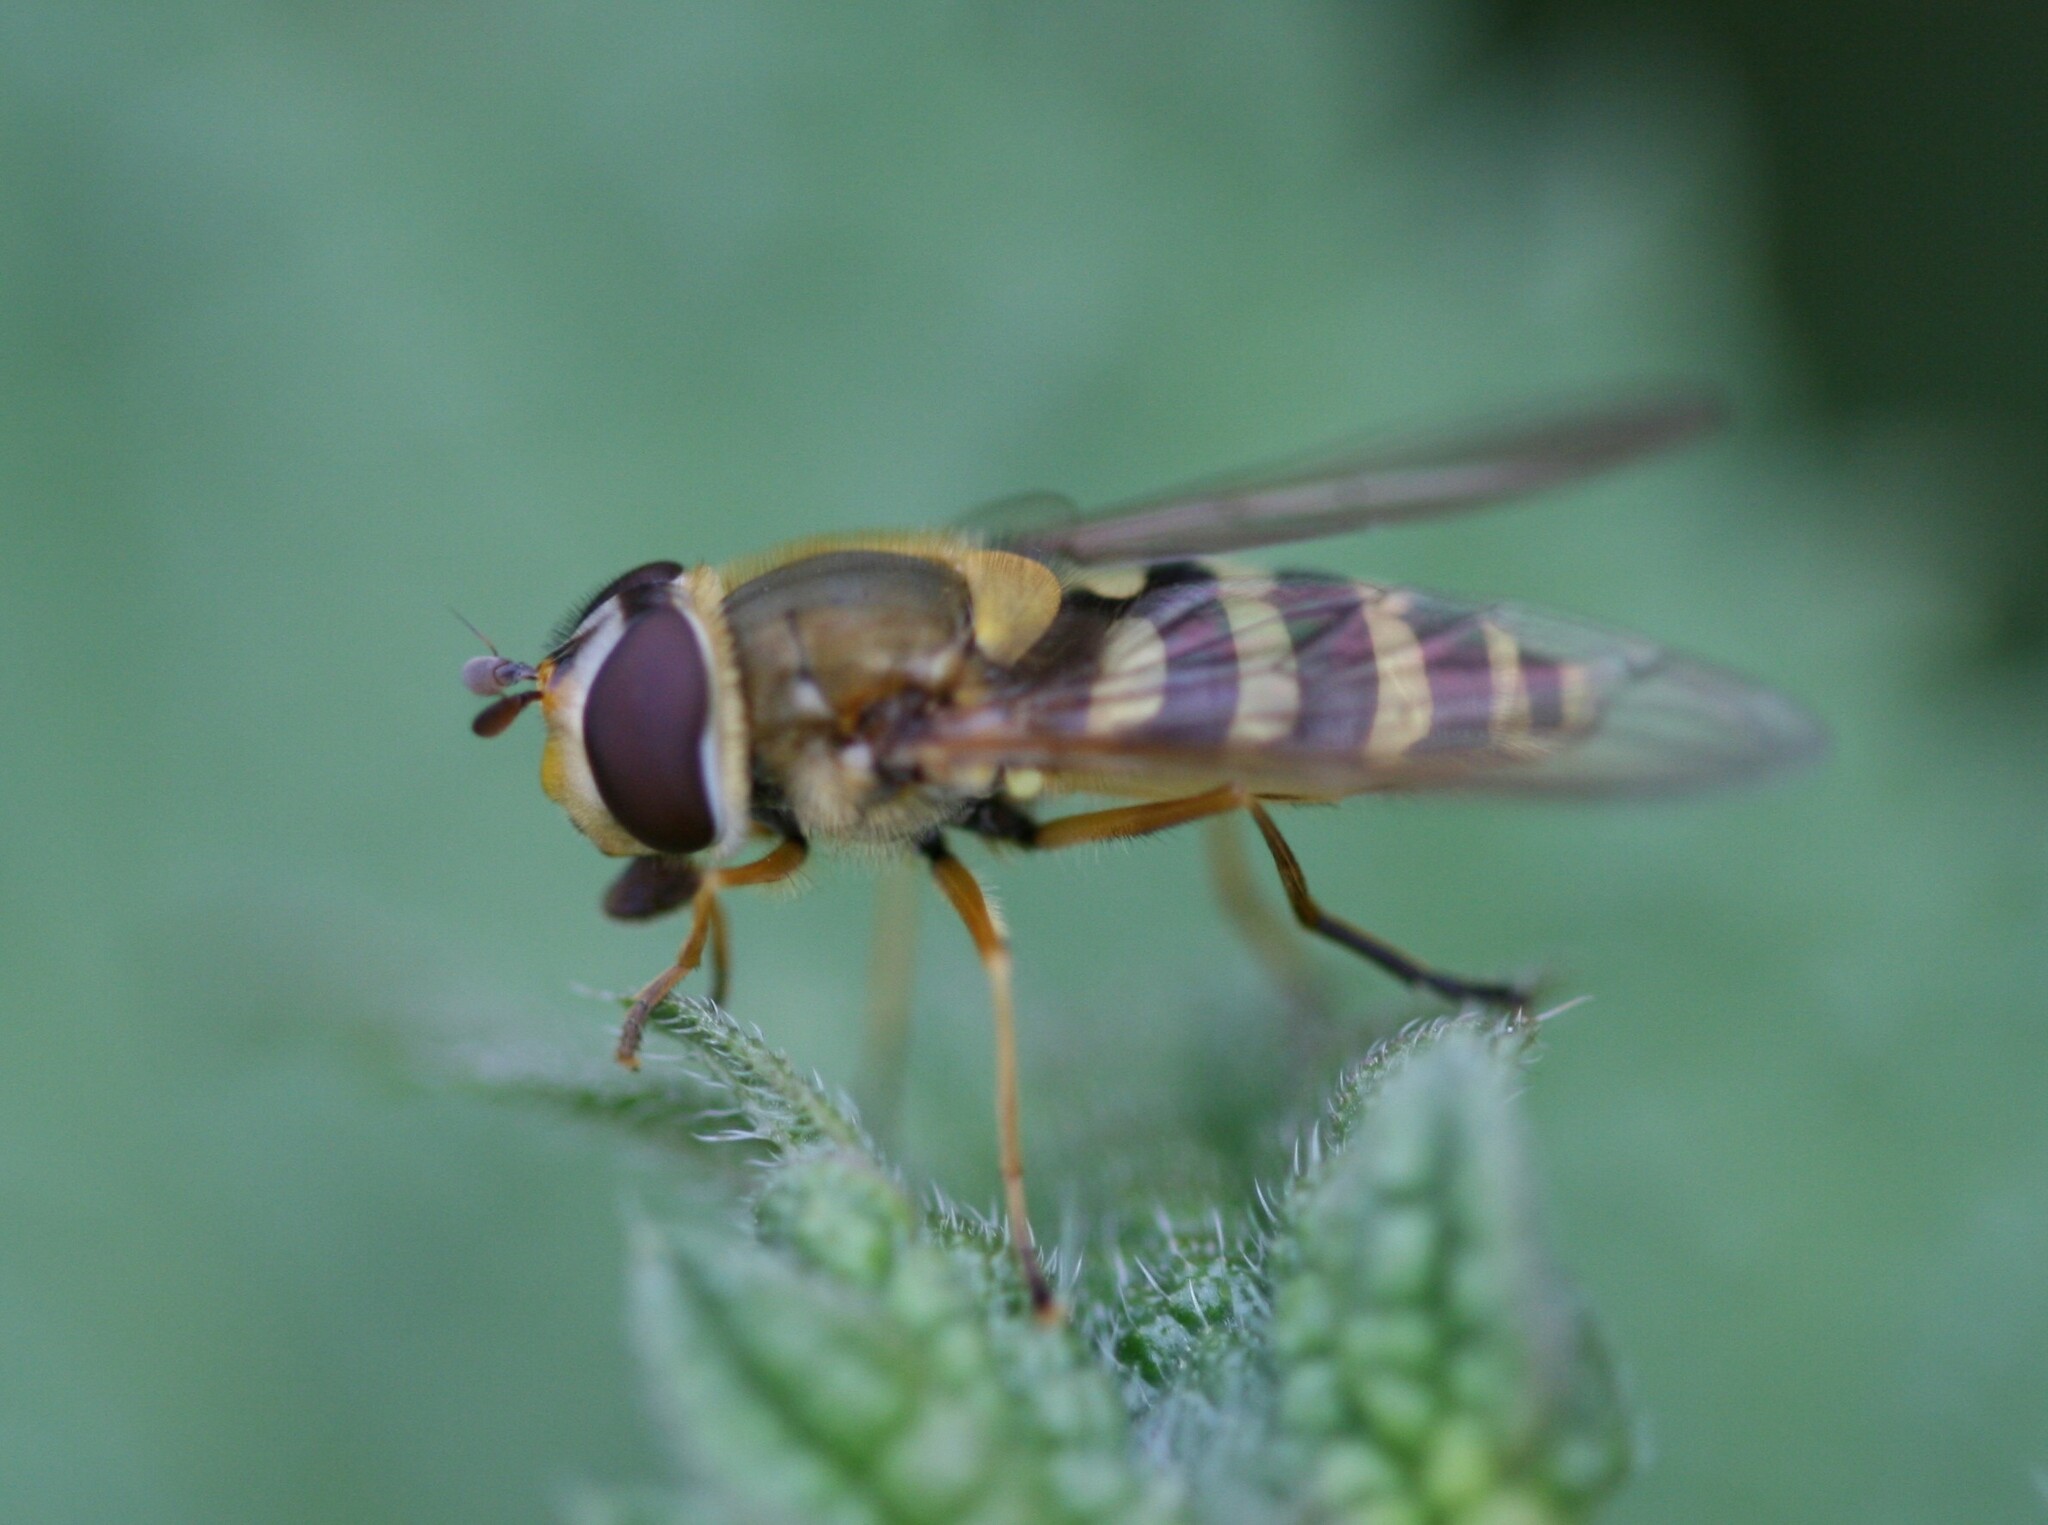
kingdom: Animalia
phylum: Arthropoda
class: Insecta
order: Diptera
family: Syrphidae
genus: Syrphus
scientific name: Syrphus ribesii
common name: Common flower fly
